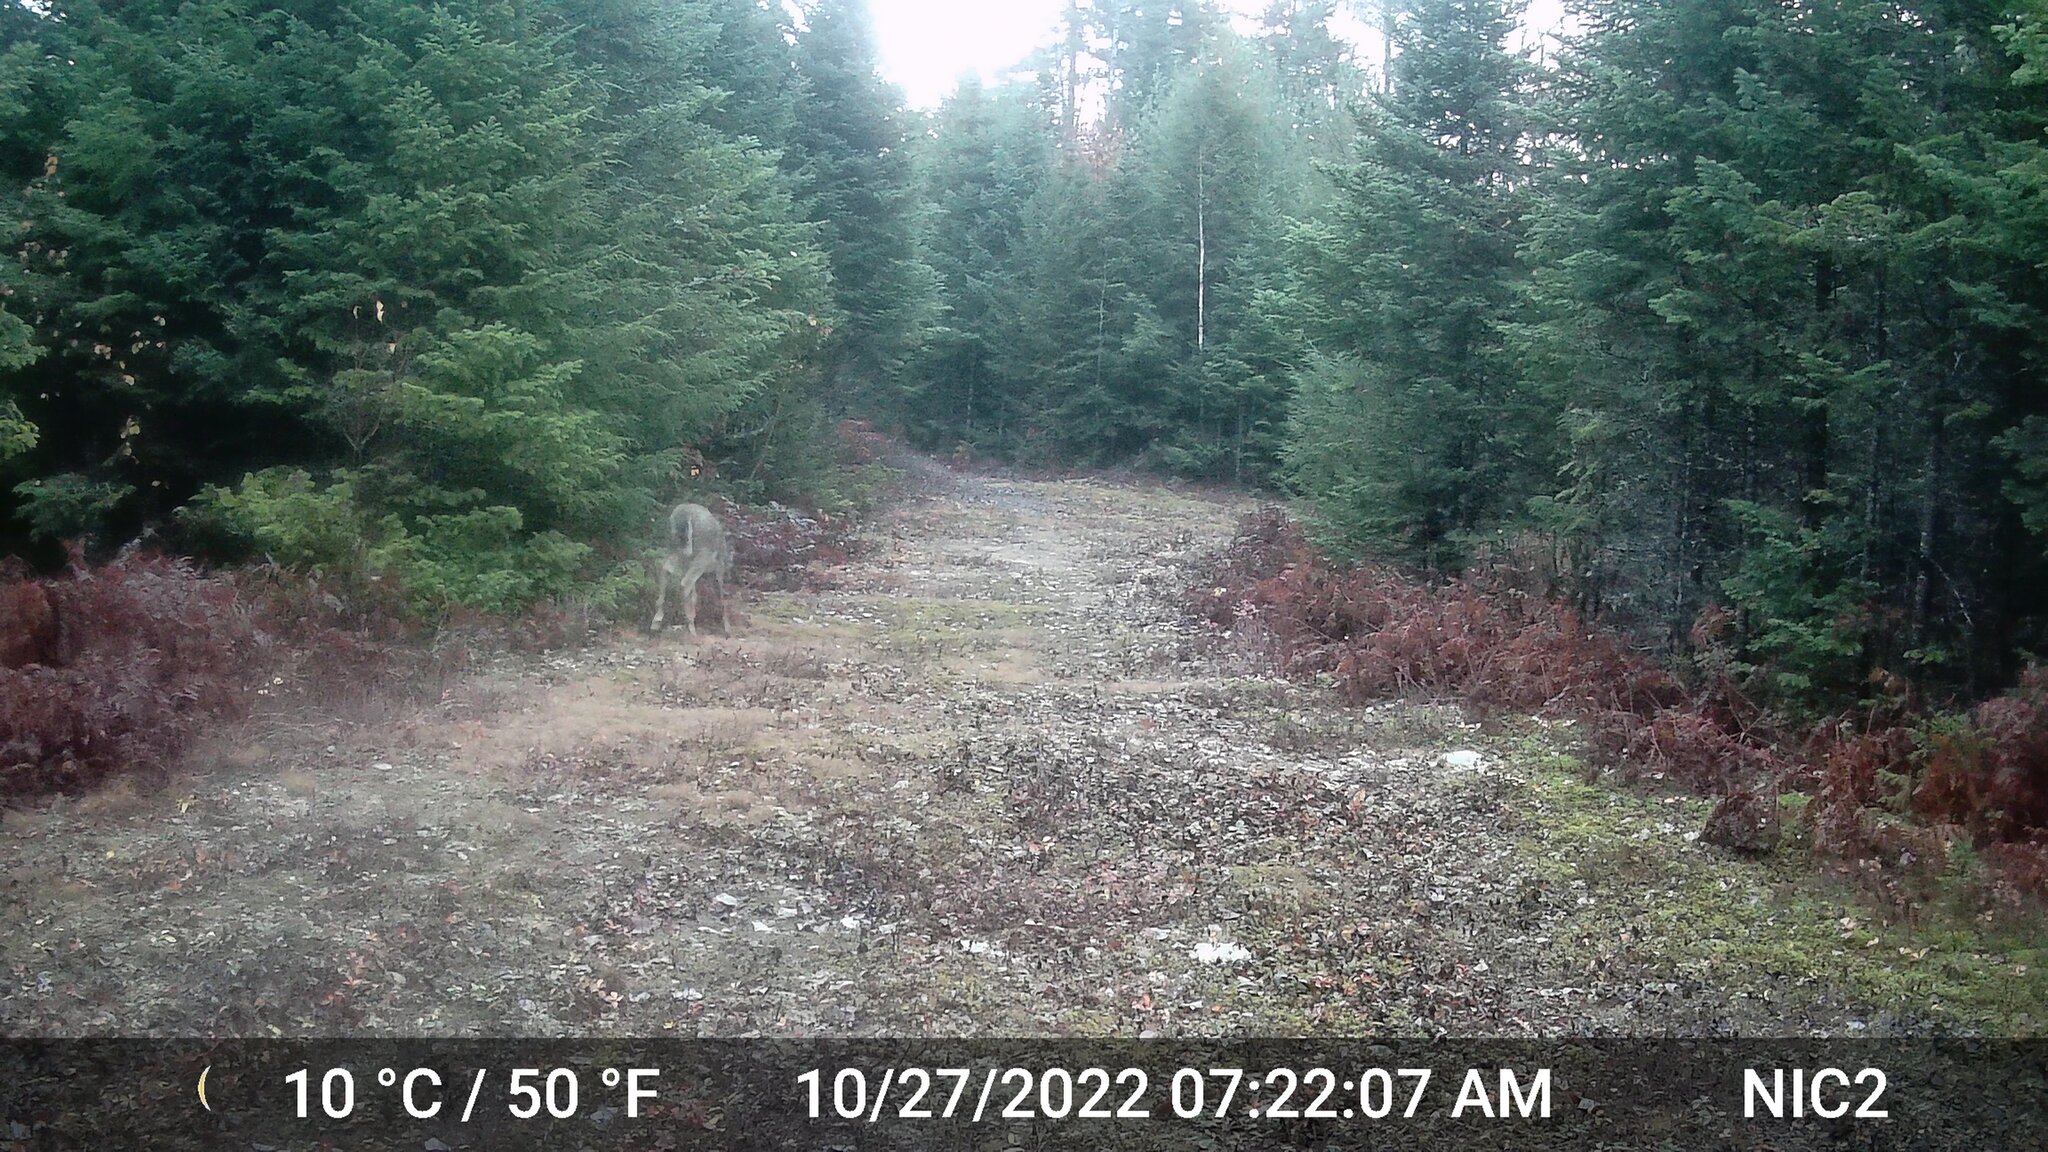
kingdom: Animalia
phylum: Chordata
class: Mammalia
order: Artiodactyla
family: Cervidae
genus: Odocoileus
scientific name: Odocoileus virginianus
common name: White-tailed deer
